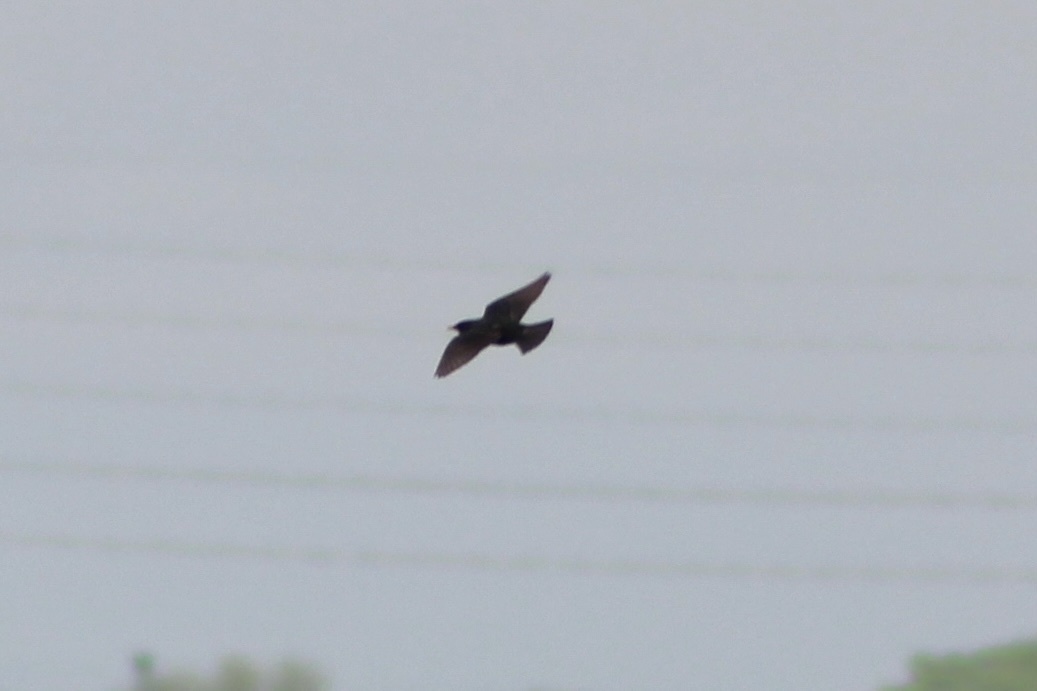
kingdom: Animalia
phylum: Chordata
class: Aves
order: Passeriformes
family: Sturnidae
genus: Sturnus
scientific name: Sturnus vulgaris
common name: Common starling
